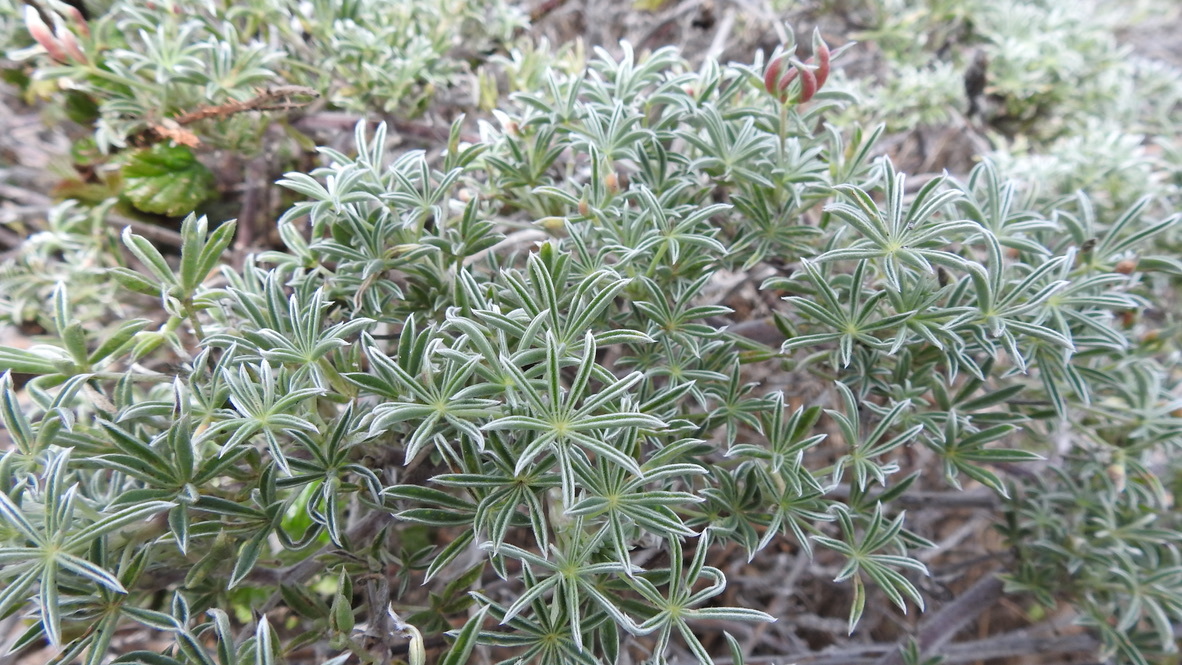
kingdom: Plantae
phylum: Tracheophyta
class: Magnoliopsida
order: Fabales
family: Fabaceae
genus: Lupinus
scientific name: Lupinus albifrons
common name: Foothill lupine
